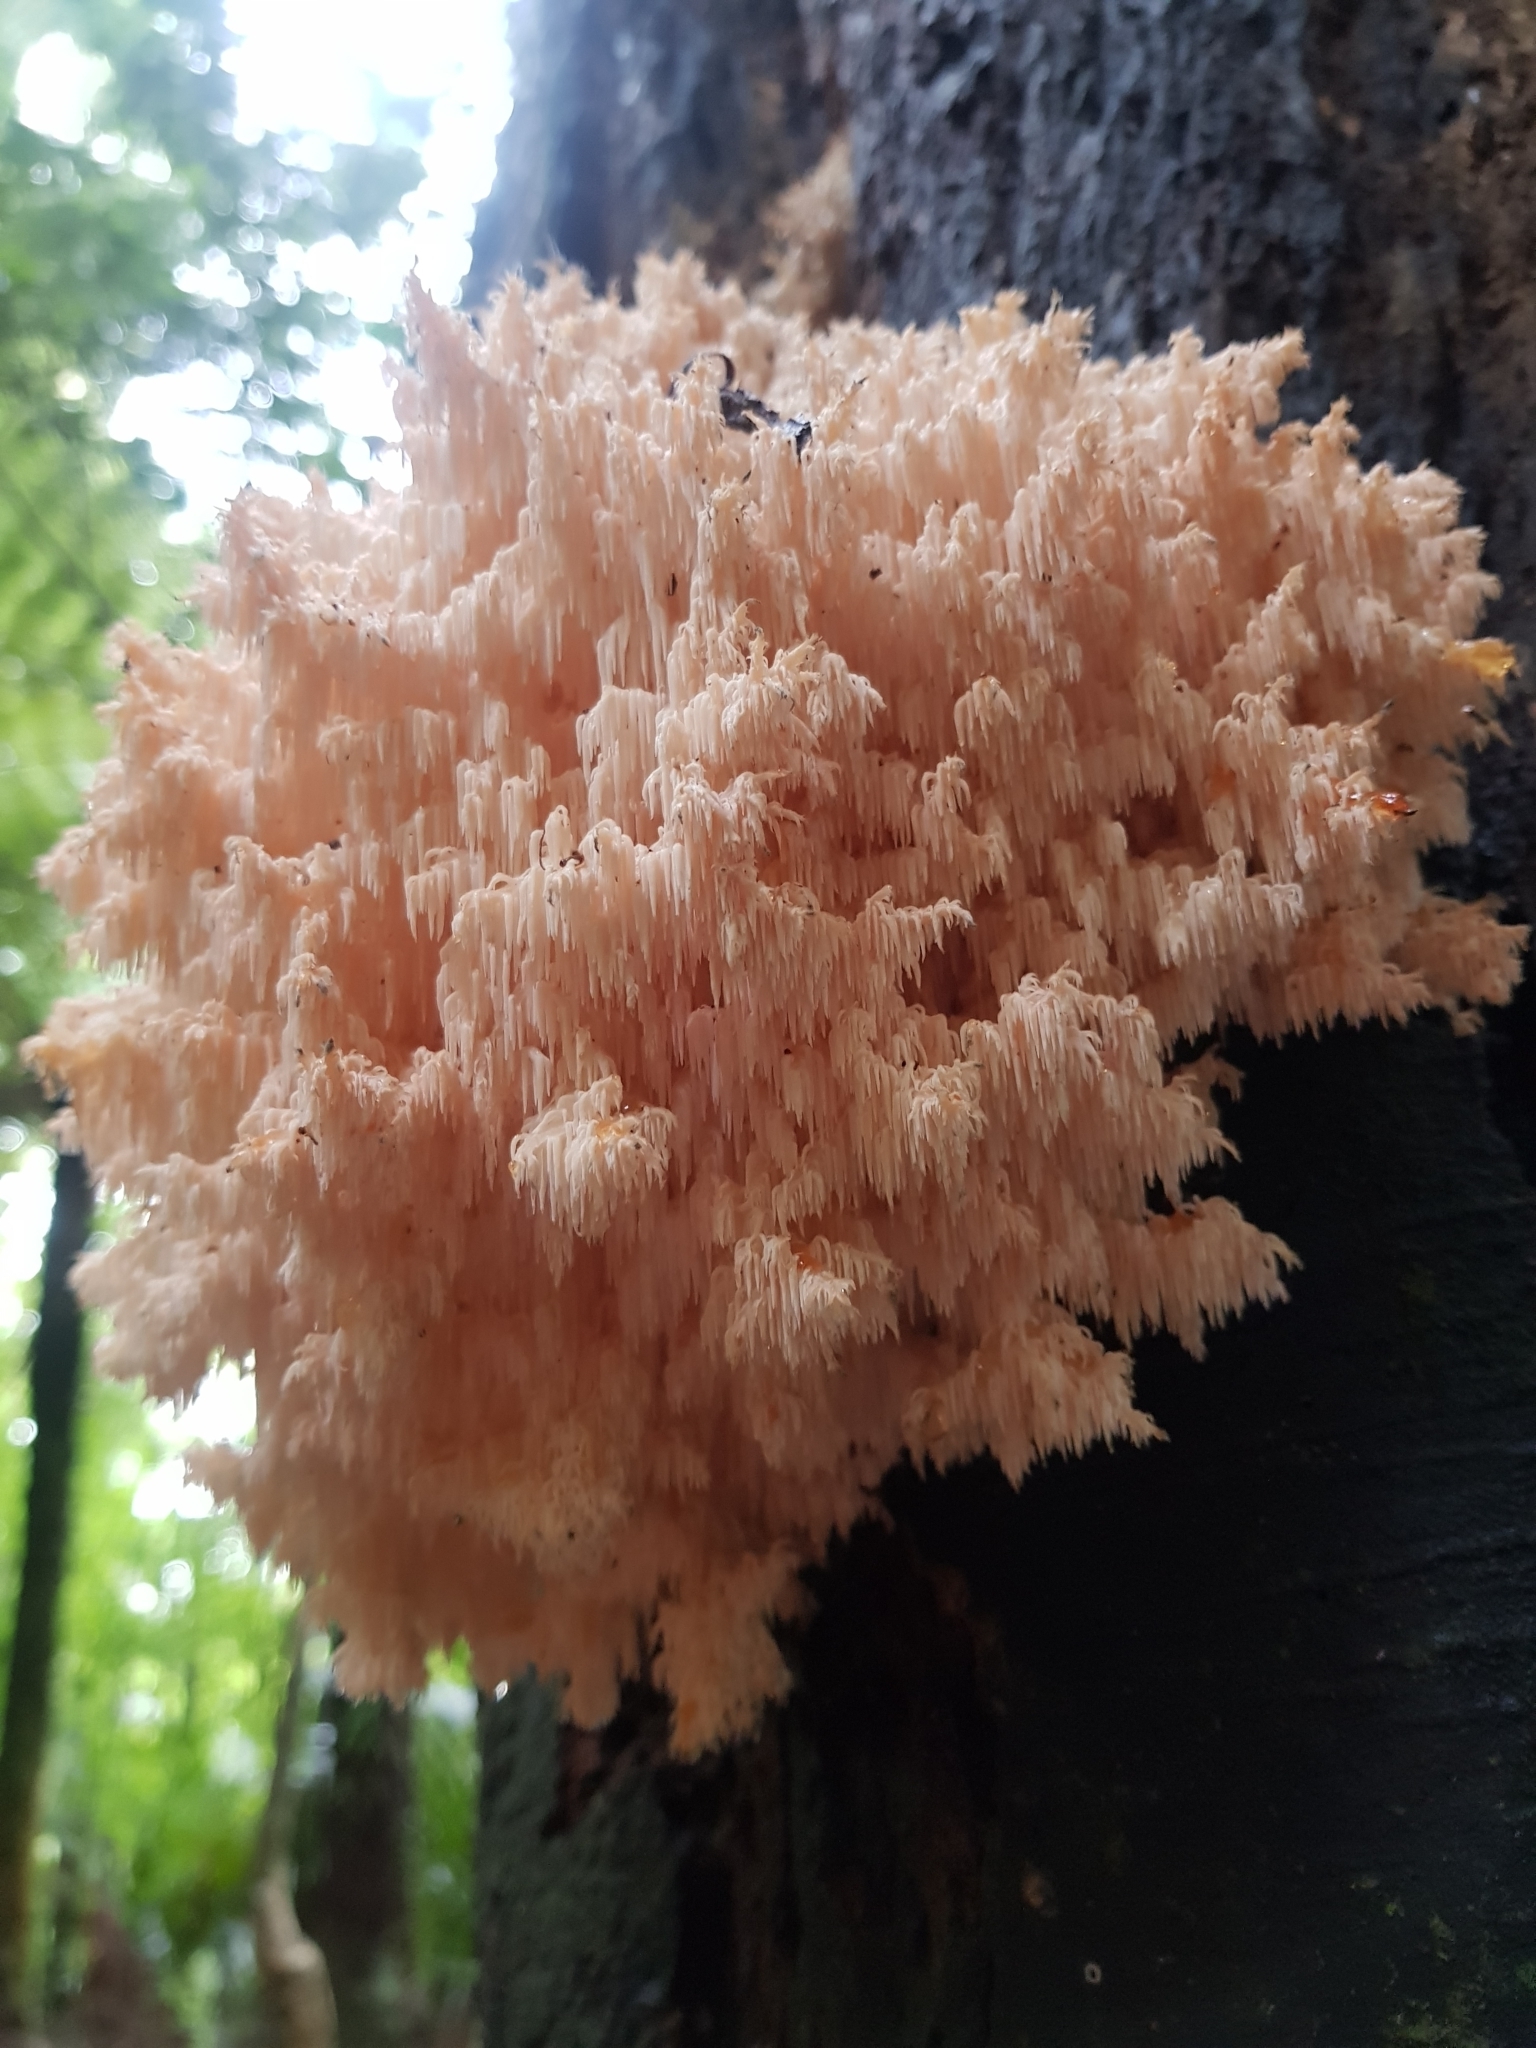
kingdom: Fungi
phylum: Basidiomycota
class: Agaricomycetes
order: Russulales
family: Hericiaceae
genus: Hericium
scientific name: Hericium novae-zealandiae
